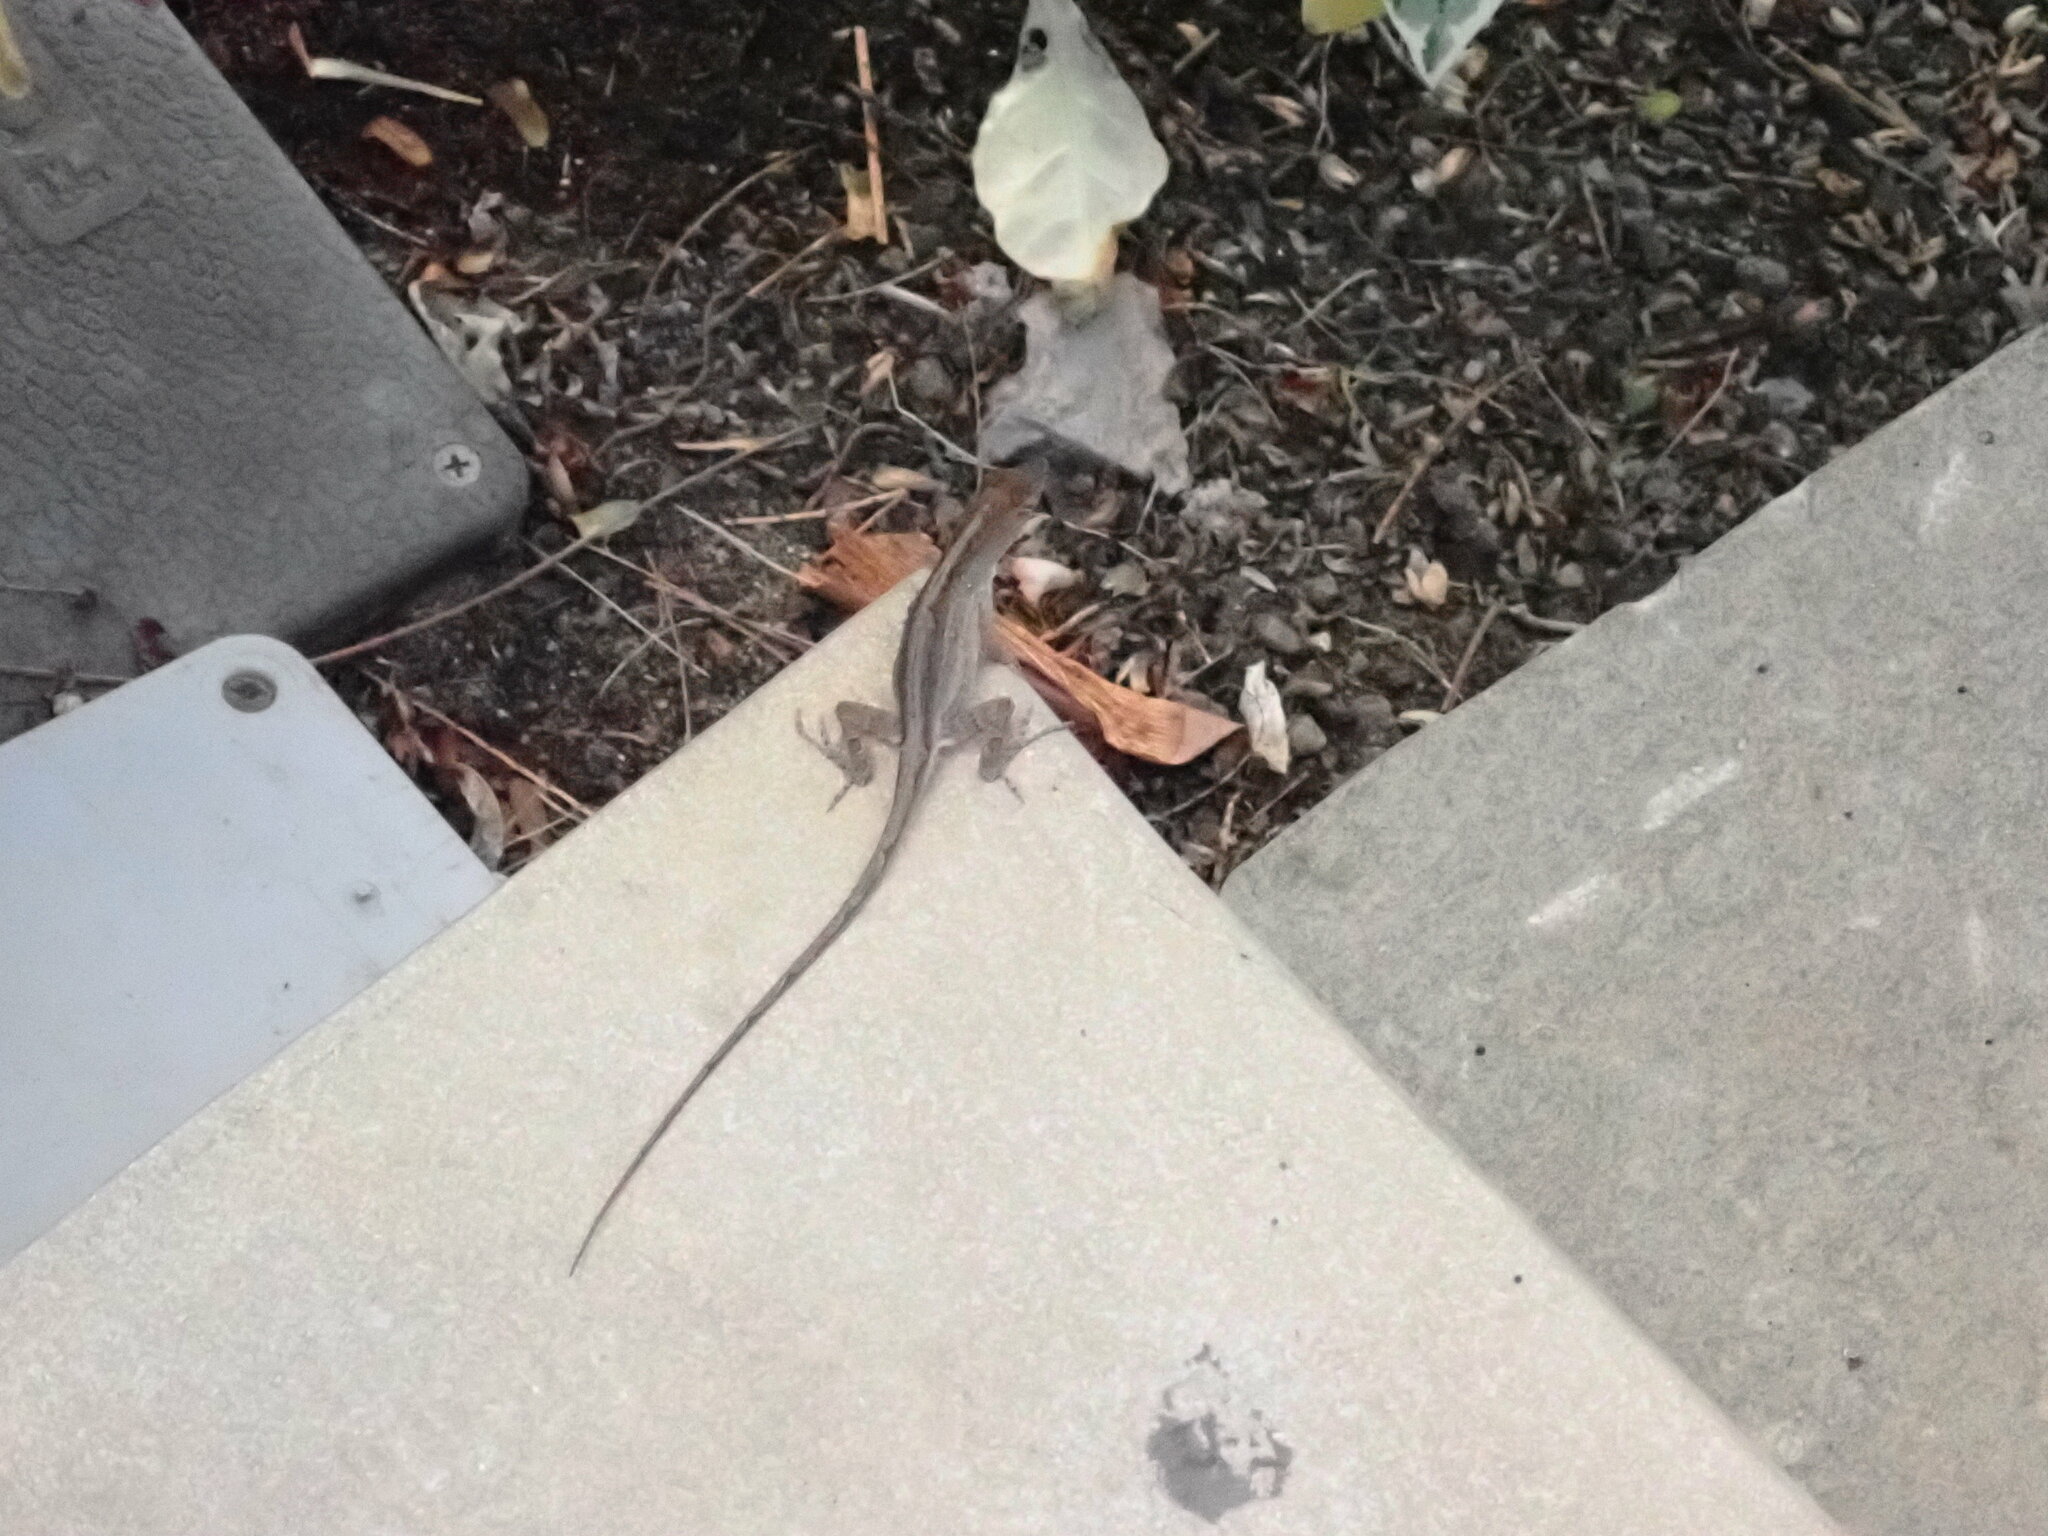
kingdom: Animalia
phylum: Chordata
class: Squamata
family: Dactyloidae
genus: Anolis
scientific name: Anolis sagrei
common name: Brown anole
